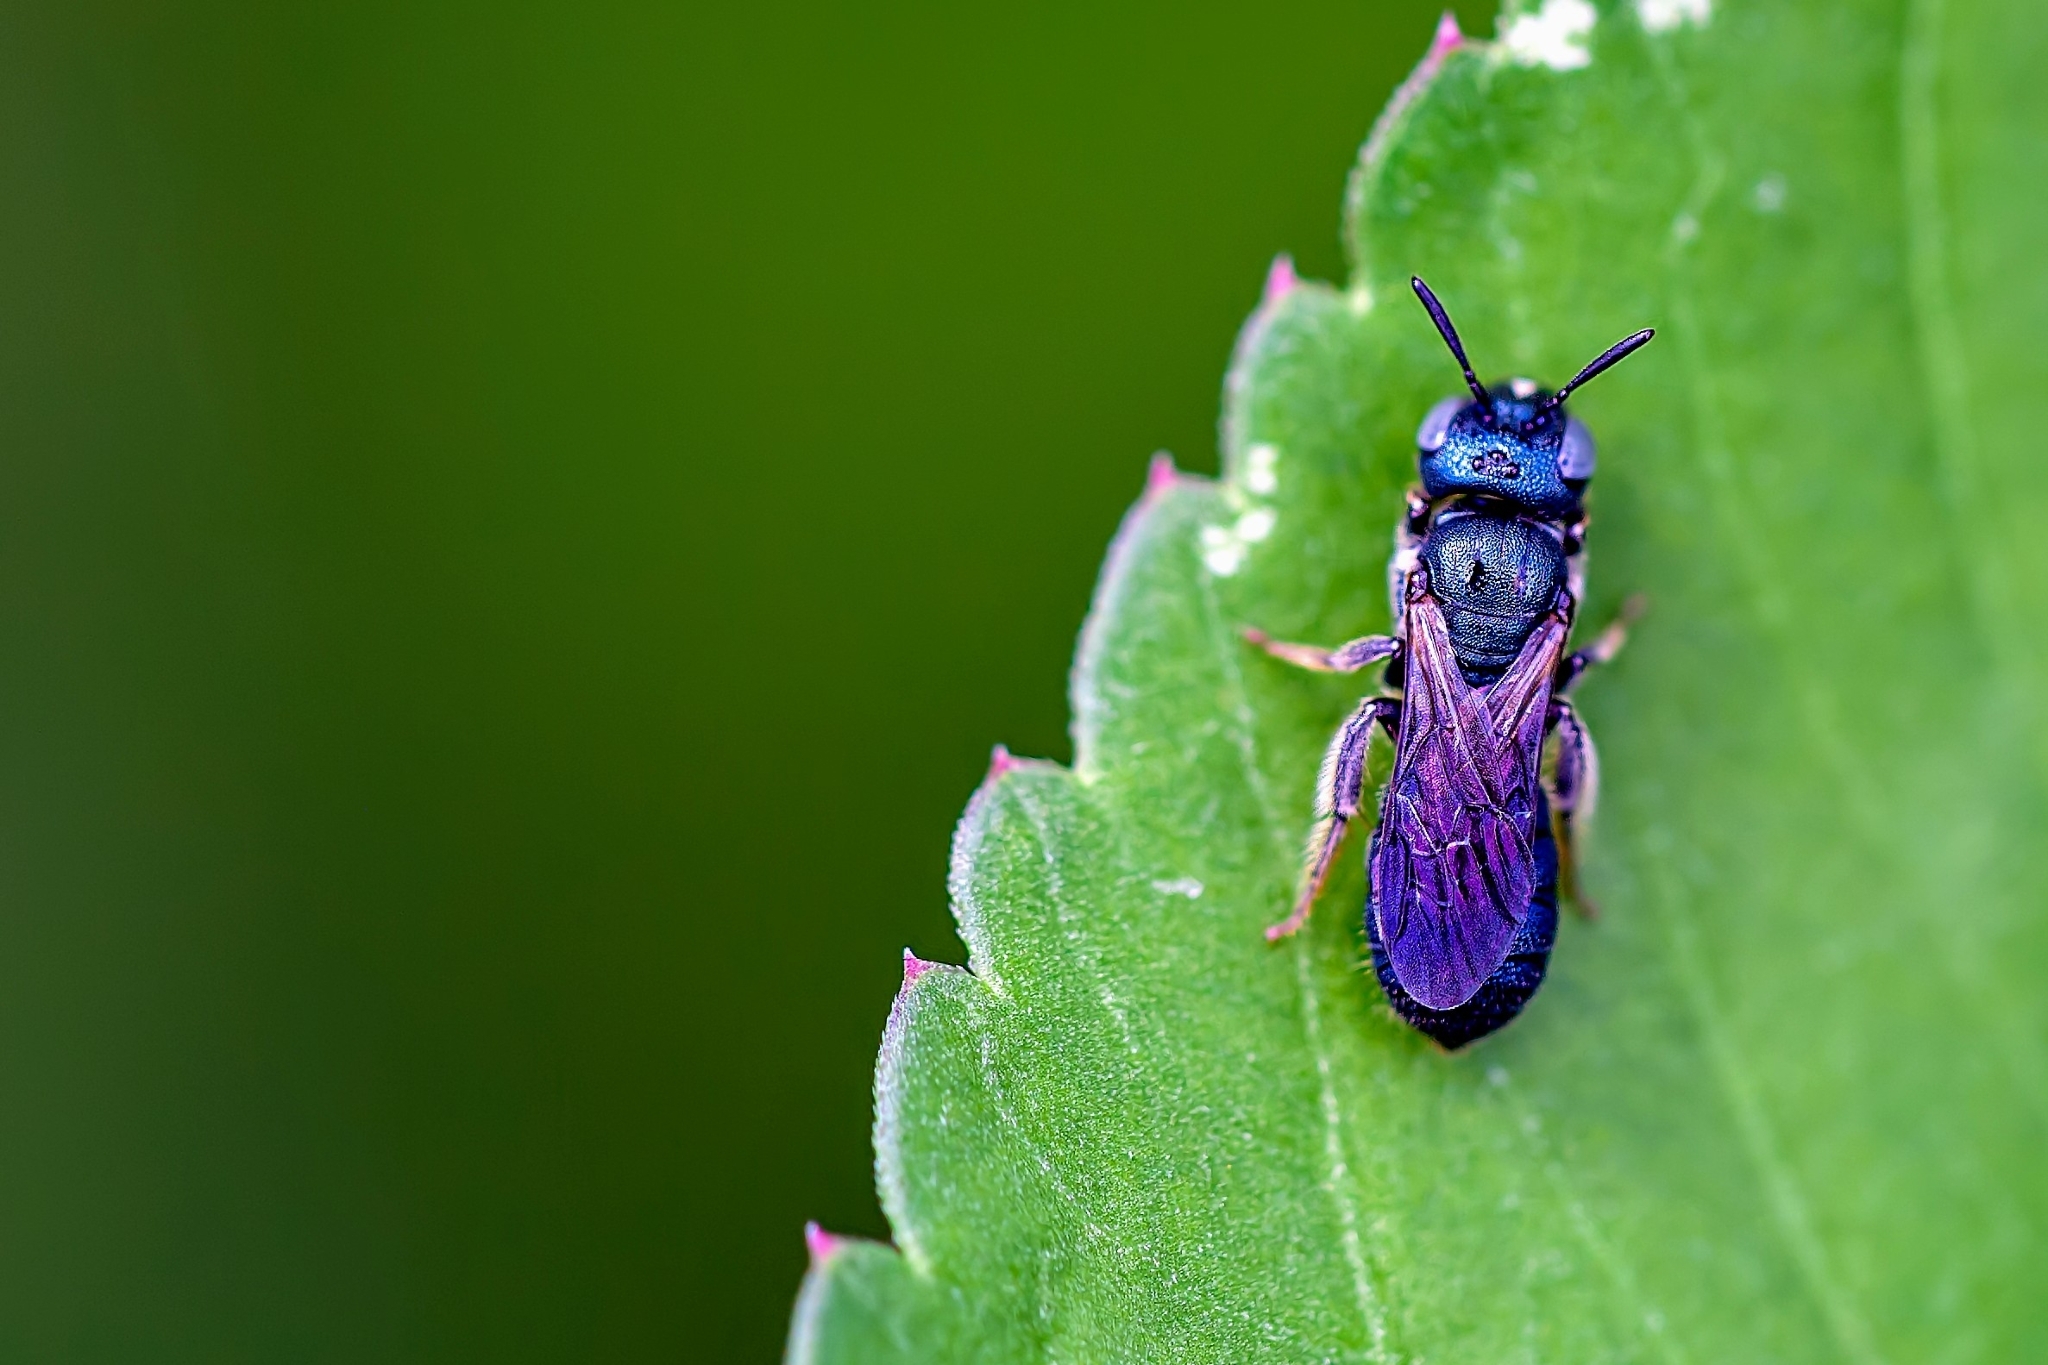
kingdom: Animalia
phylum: Arthropoda
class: Insecta
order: Hymenoptera
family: Apidae
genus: Ceratina
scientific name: Ceratina floridana
